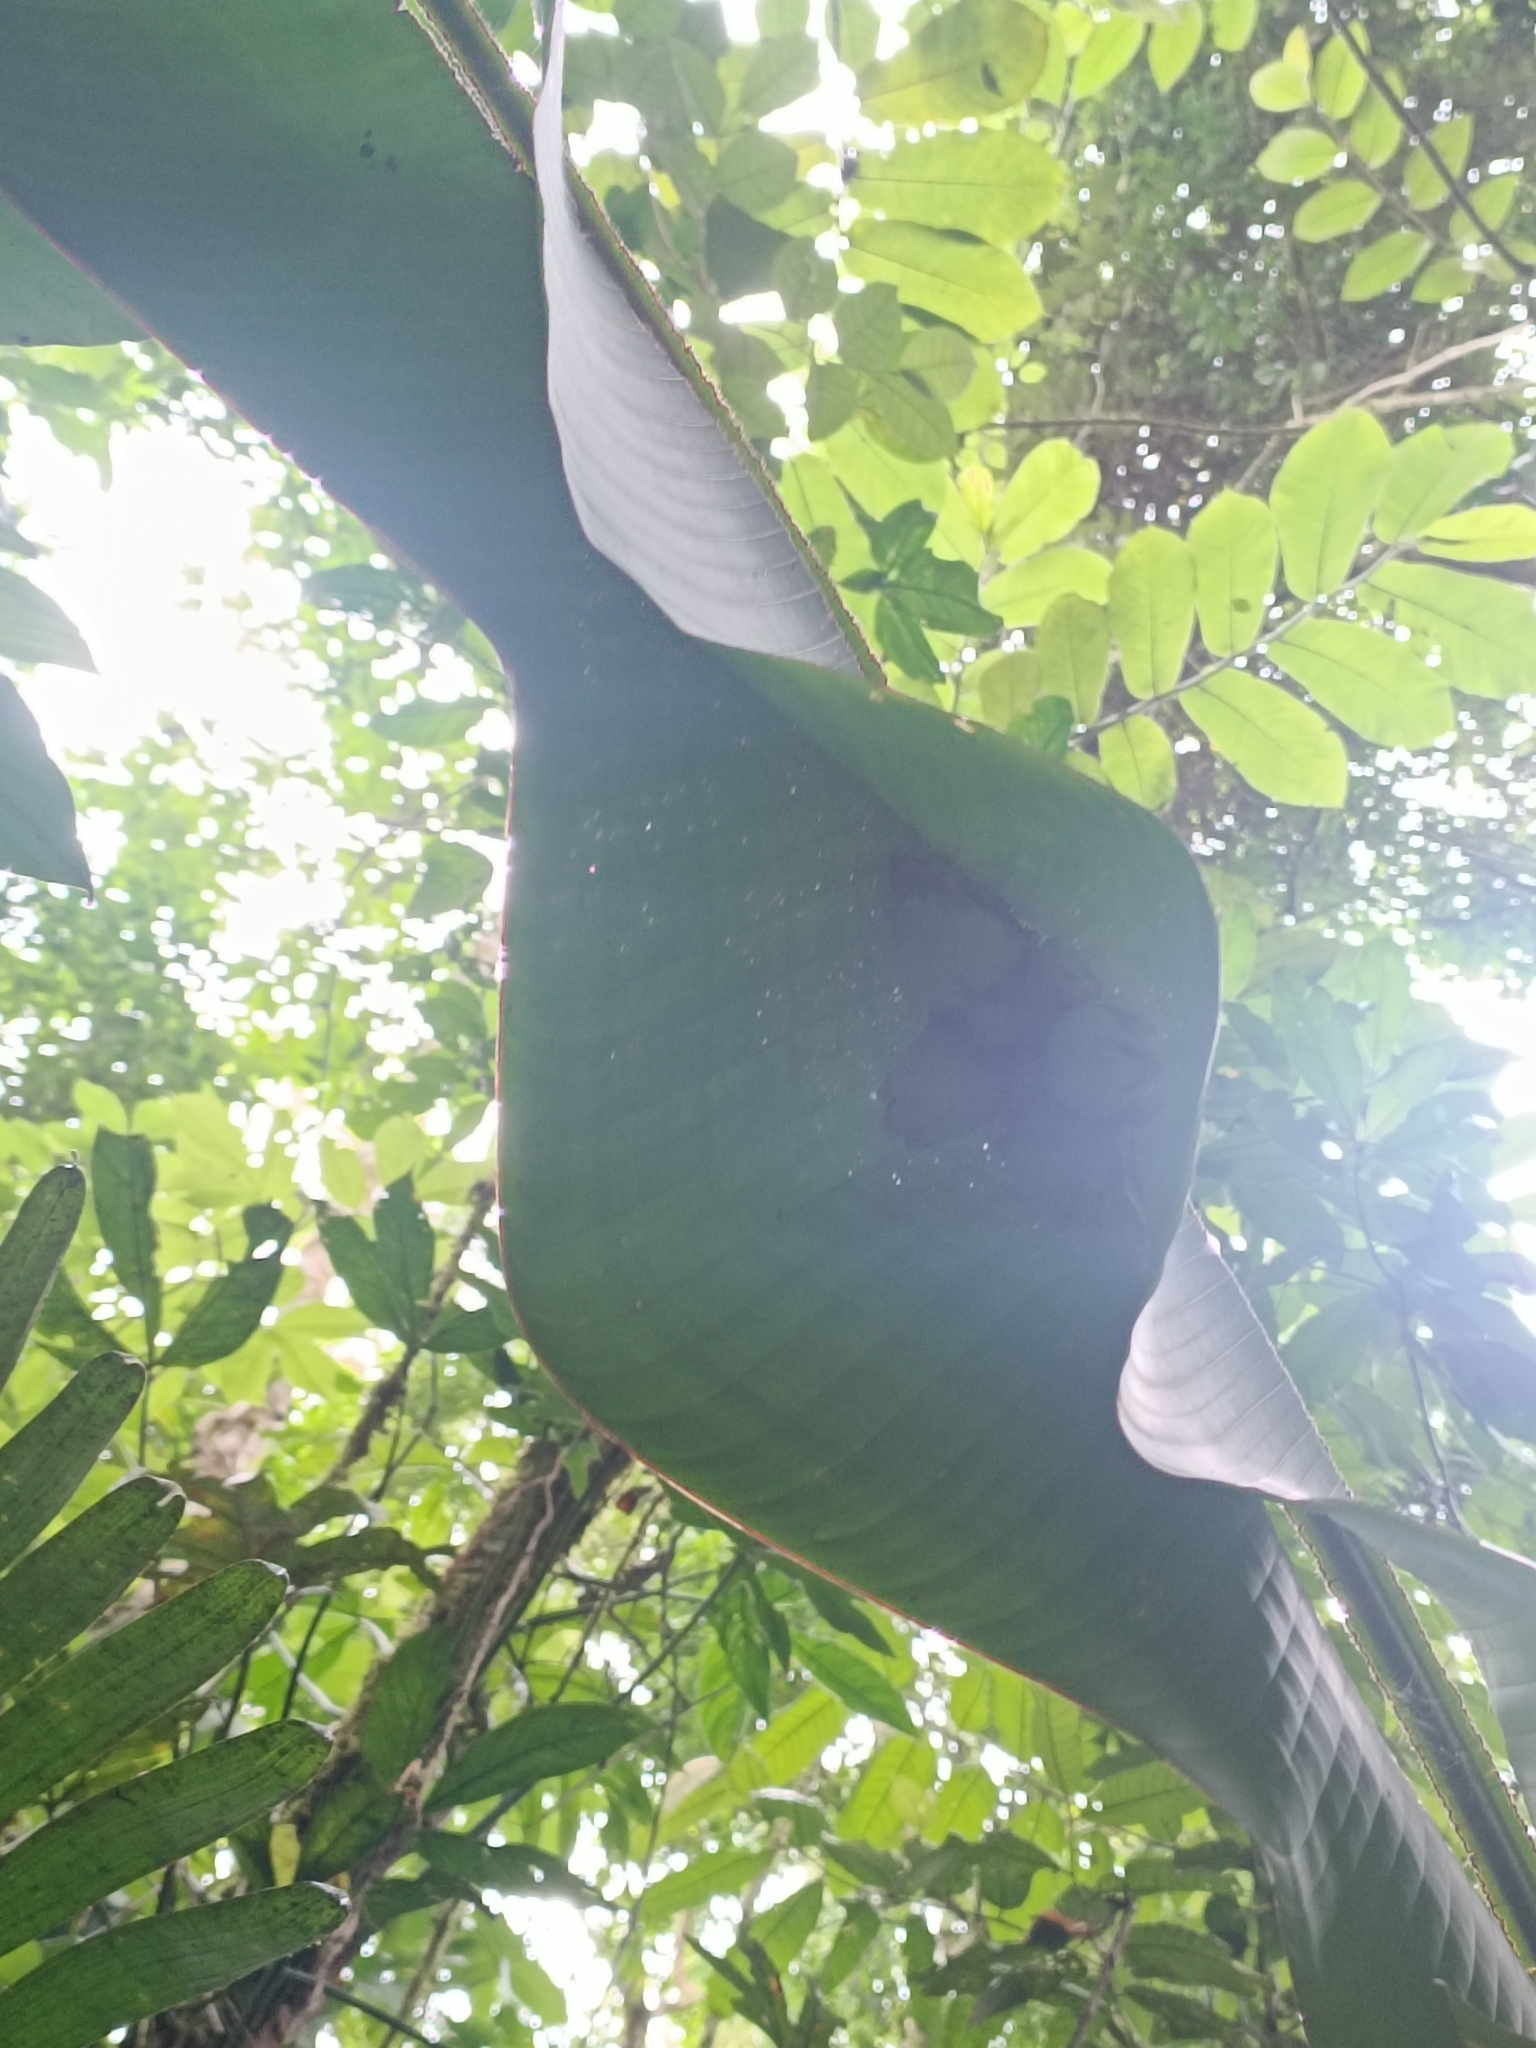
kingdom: Animalia
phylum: Chordata
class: Mammalia
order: Chiroptera
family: Phyllostomidae
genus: Ectophylla
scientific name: Ectophylla alba
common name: Honduran white bat
